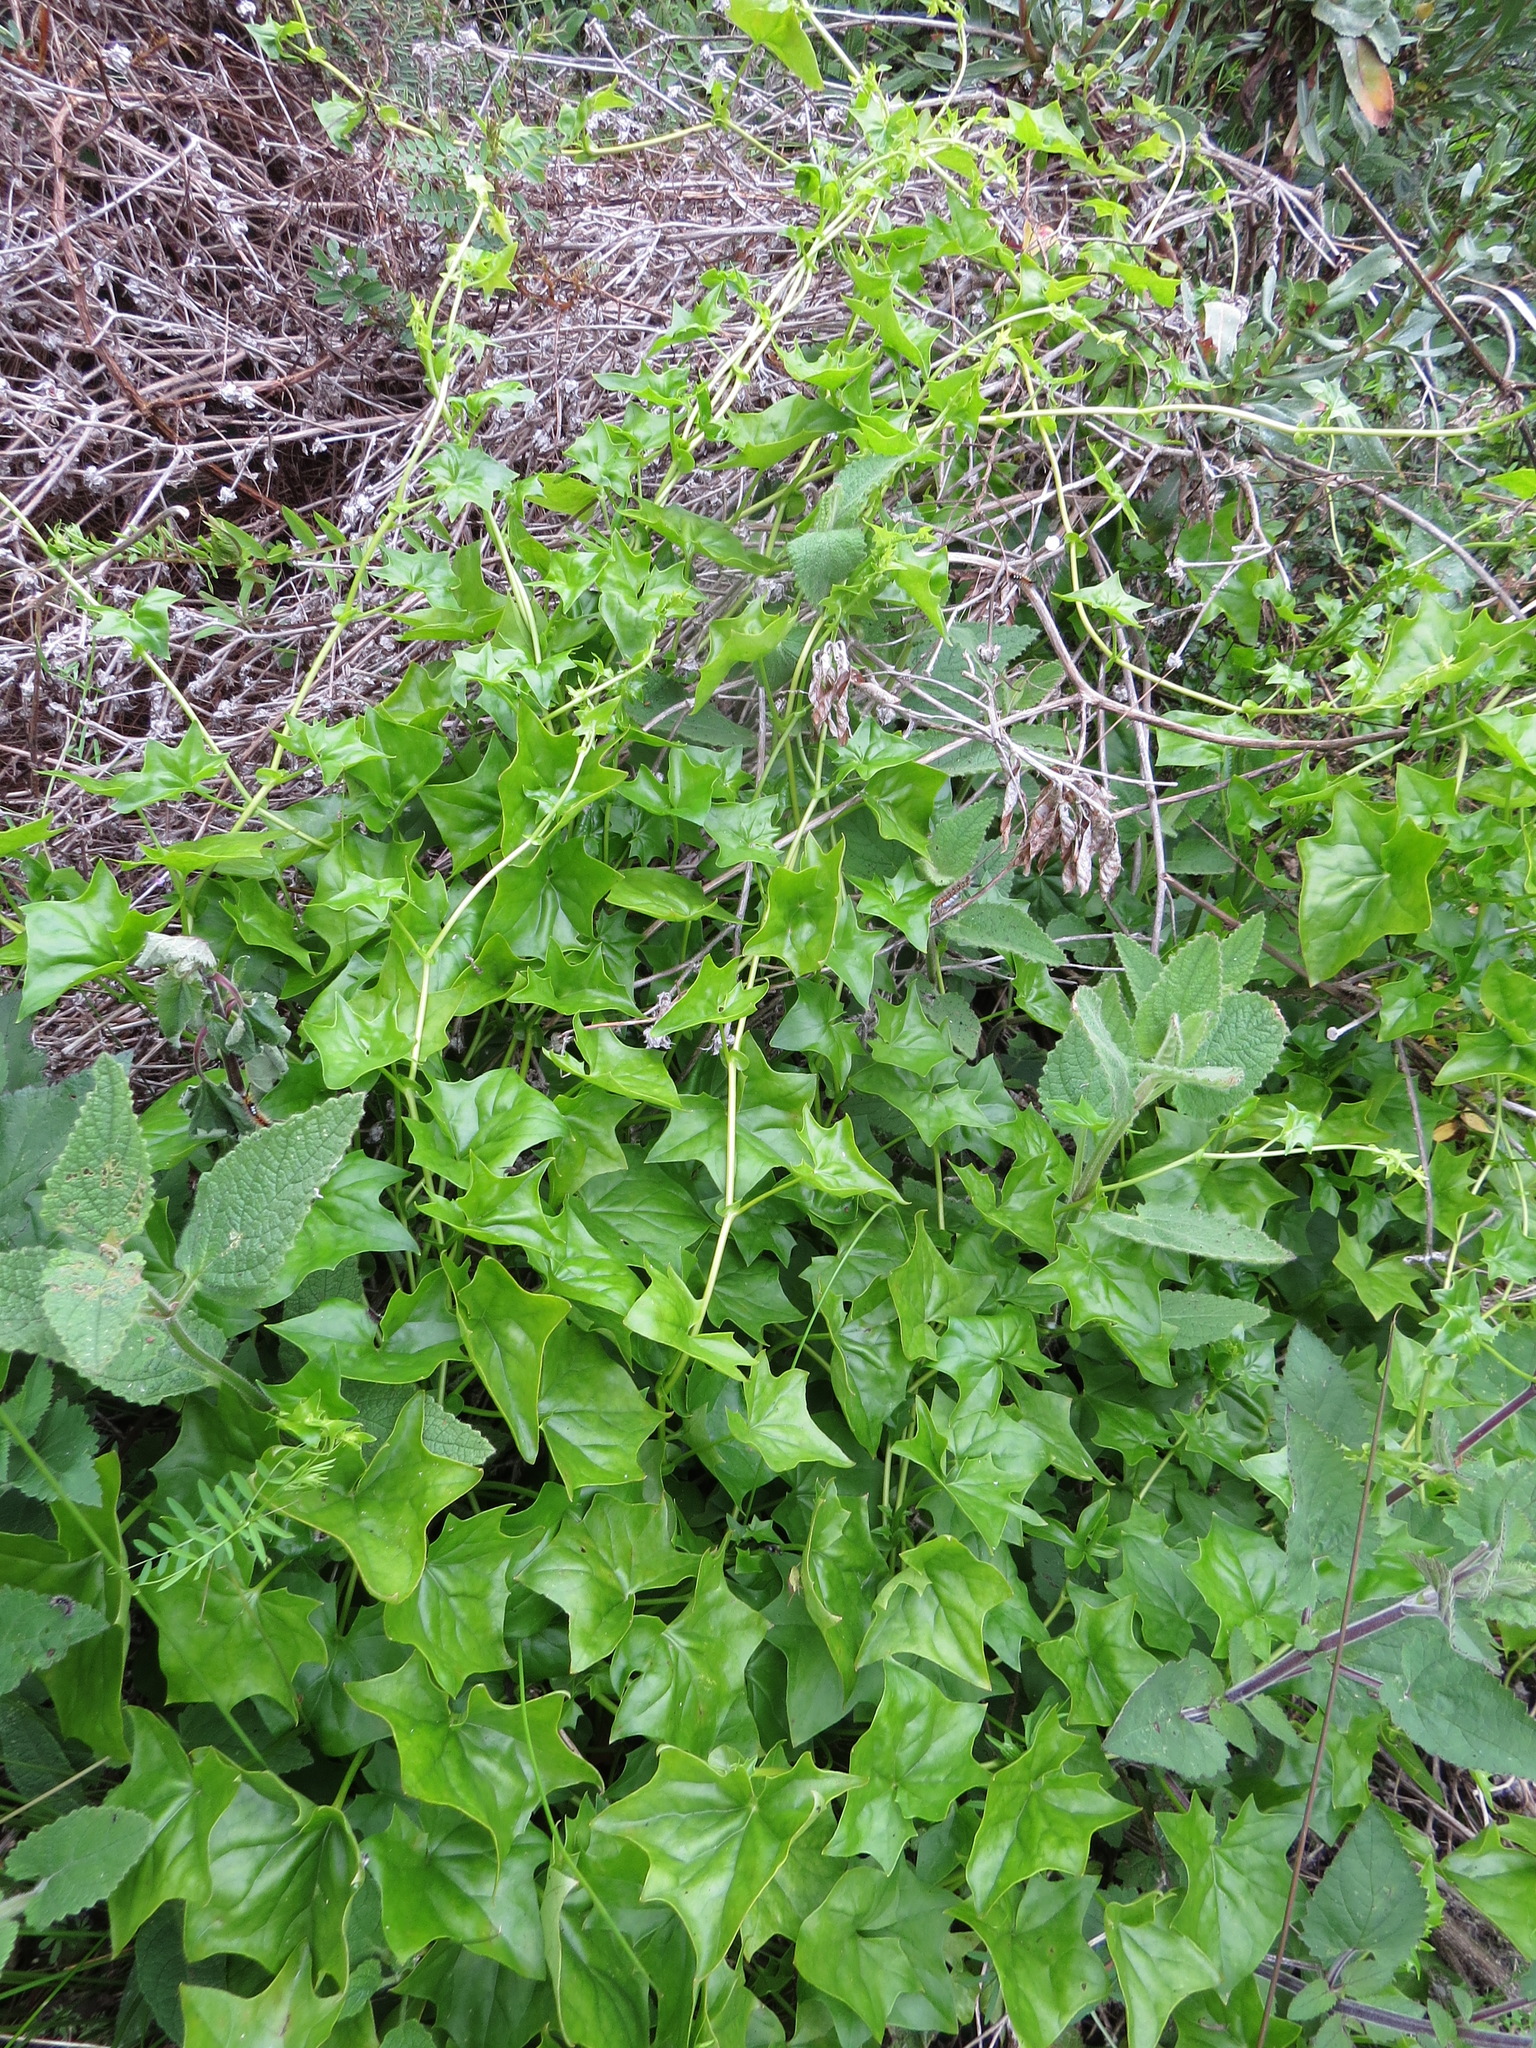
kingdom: Plantae
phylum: Tracheophyta
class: Magnoliopsida
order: Asterales
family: Asteraceae
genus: Delairea
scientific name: Delairea odorata
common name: Cape-ivy
